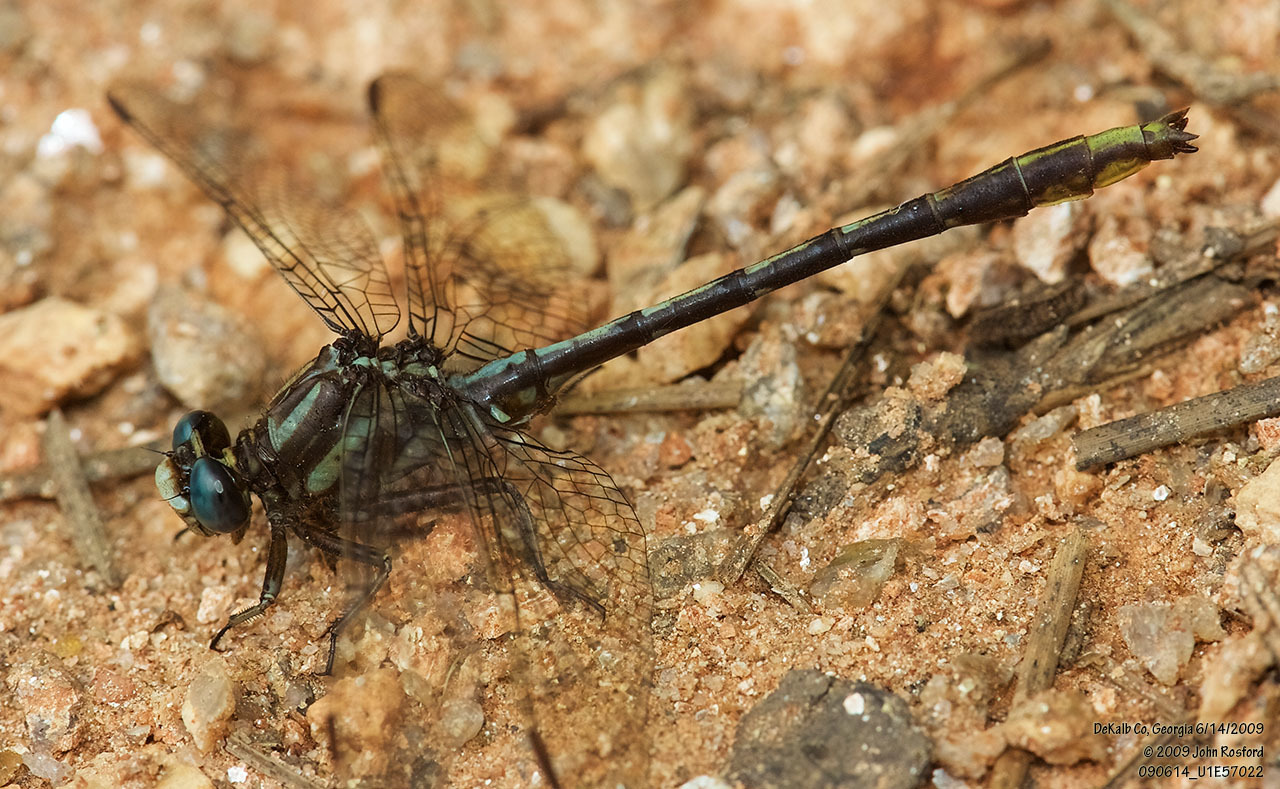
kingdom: Animalia
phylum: Arthropoda
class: Insecta
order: Odonata
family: Gomphidae
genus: Phanogomphus
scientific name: Phanogomphus exilis
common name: Lancet clubtail
